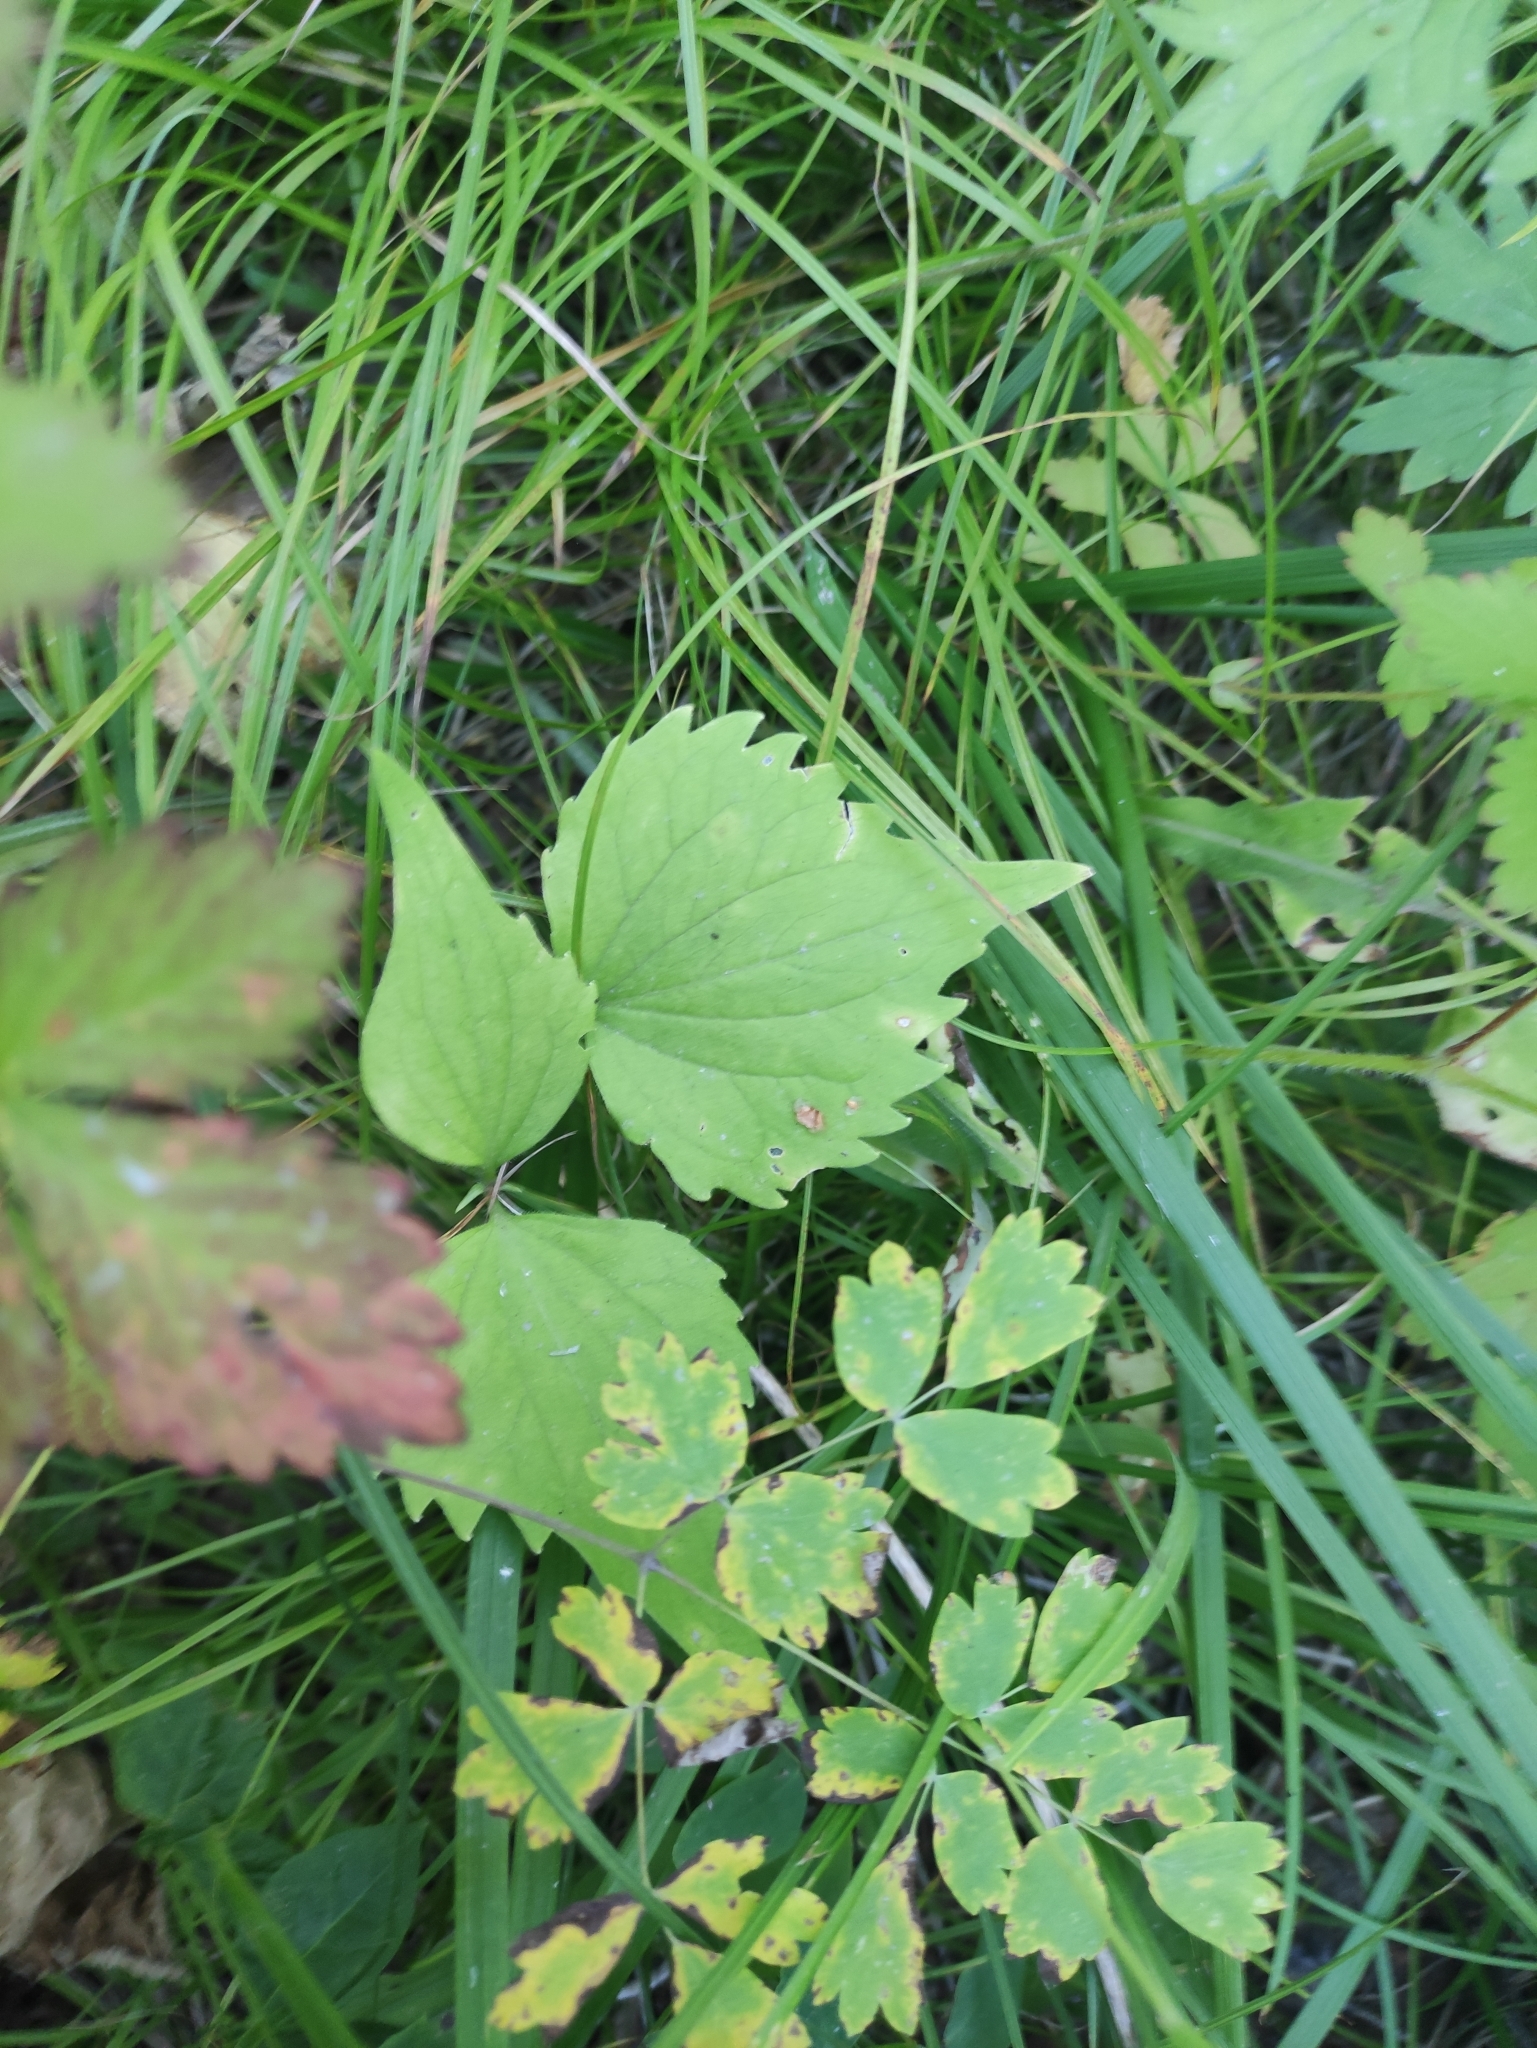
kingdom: Plantae
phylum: Tracheophyta
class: Magnoliopsida
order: Malpighiales
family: Violaceae
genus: Viola
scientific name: Viola uniflora
